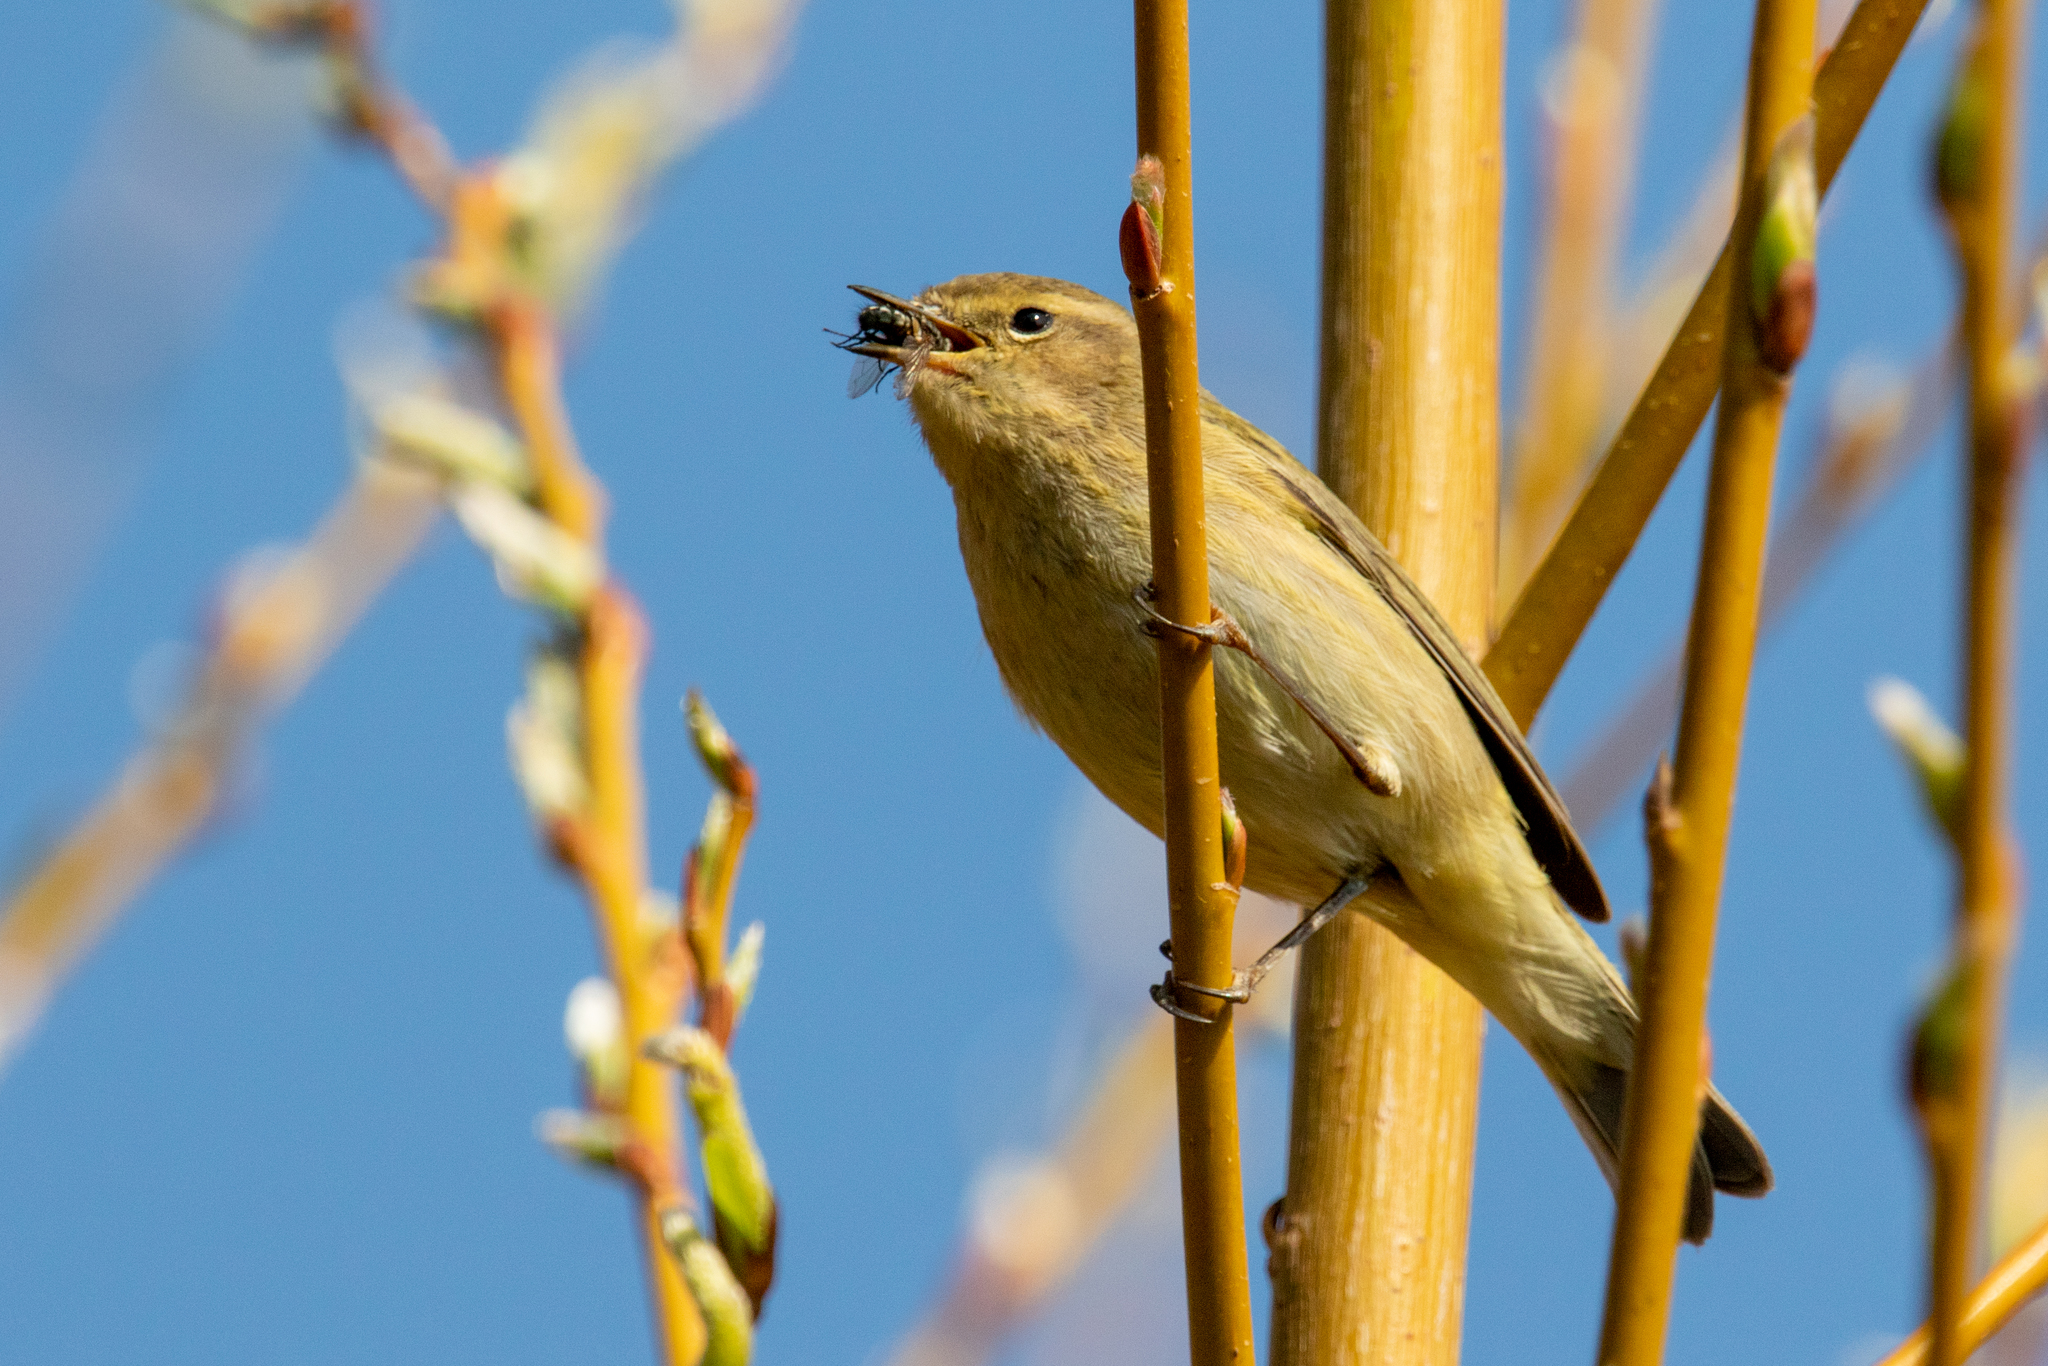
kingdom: Animalia
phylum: Chordata
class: Aves
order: Passeriformes
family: Phylloscopidae
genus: Phylloscopus
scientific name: Phylloscopus collybita
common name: Common chiffchaff
